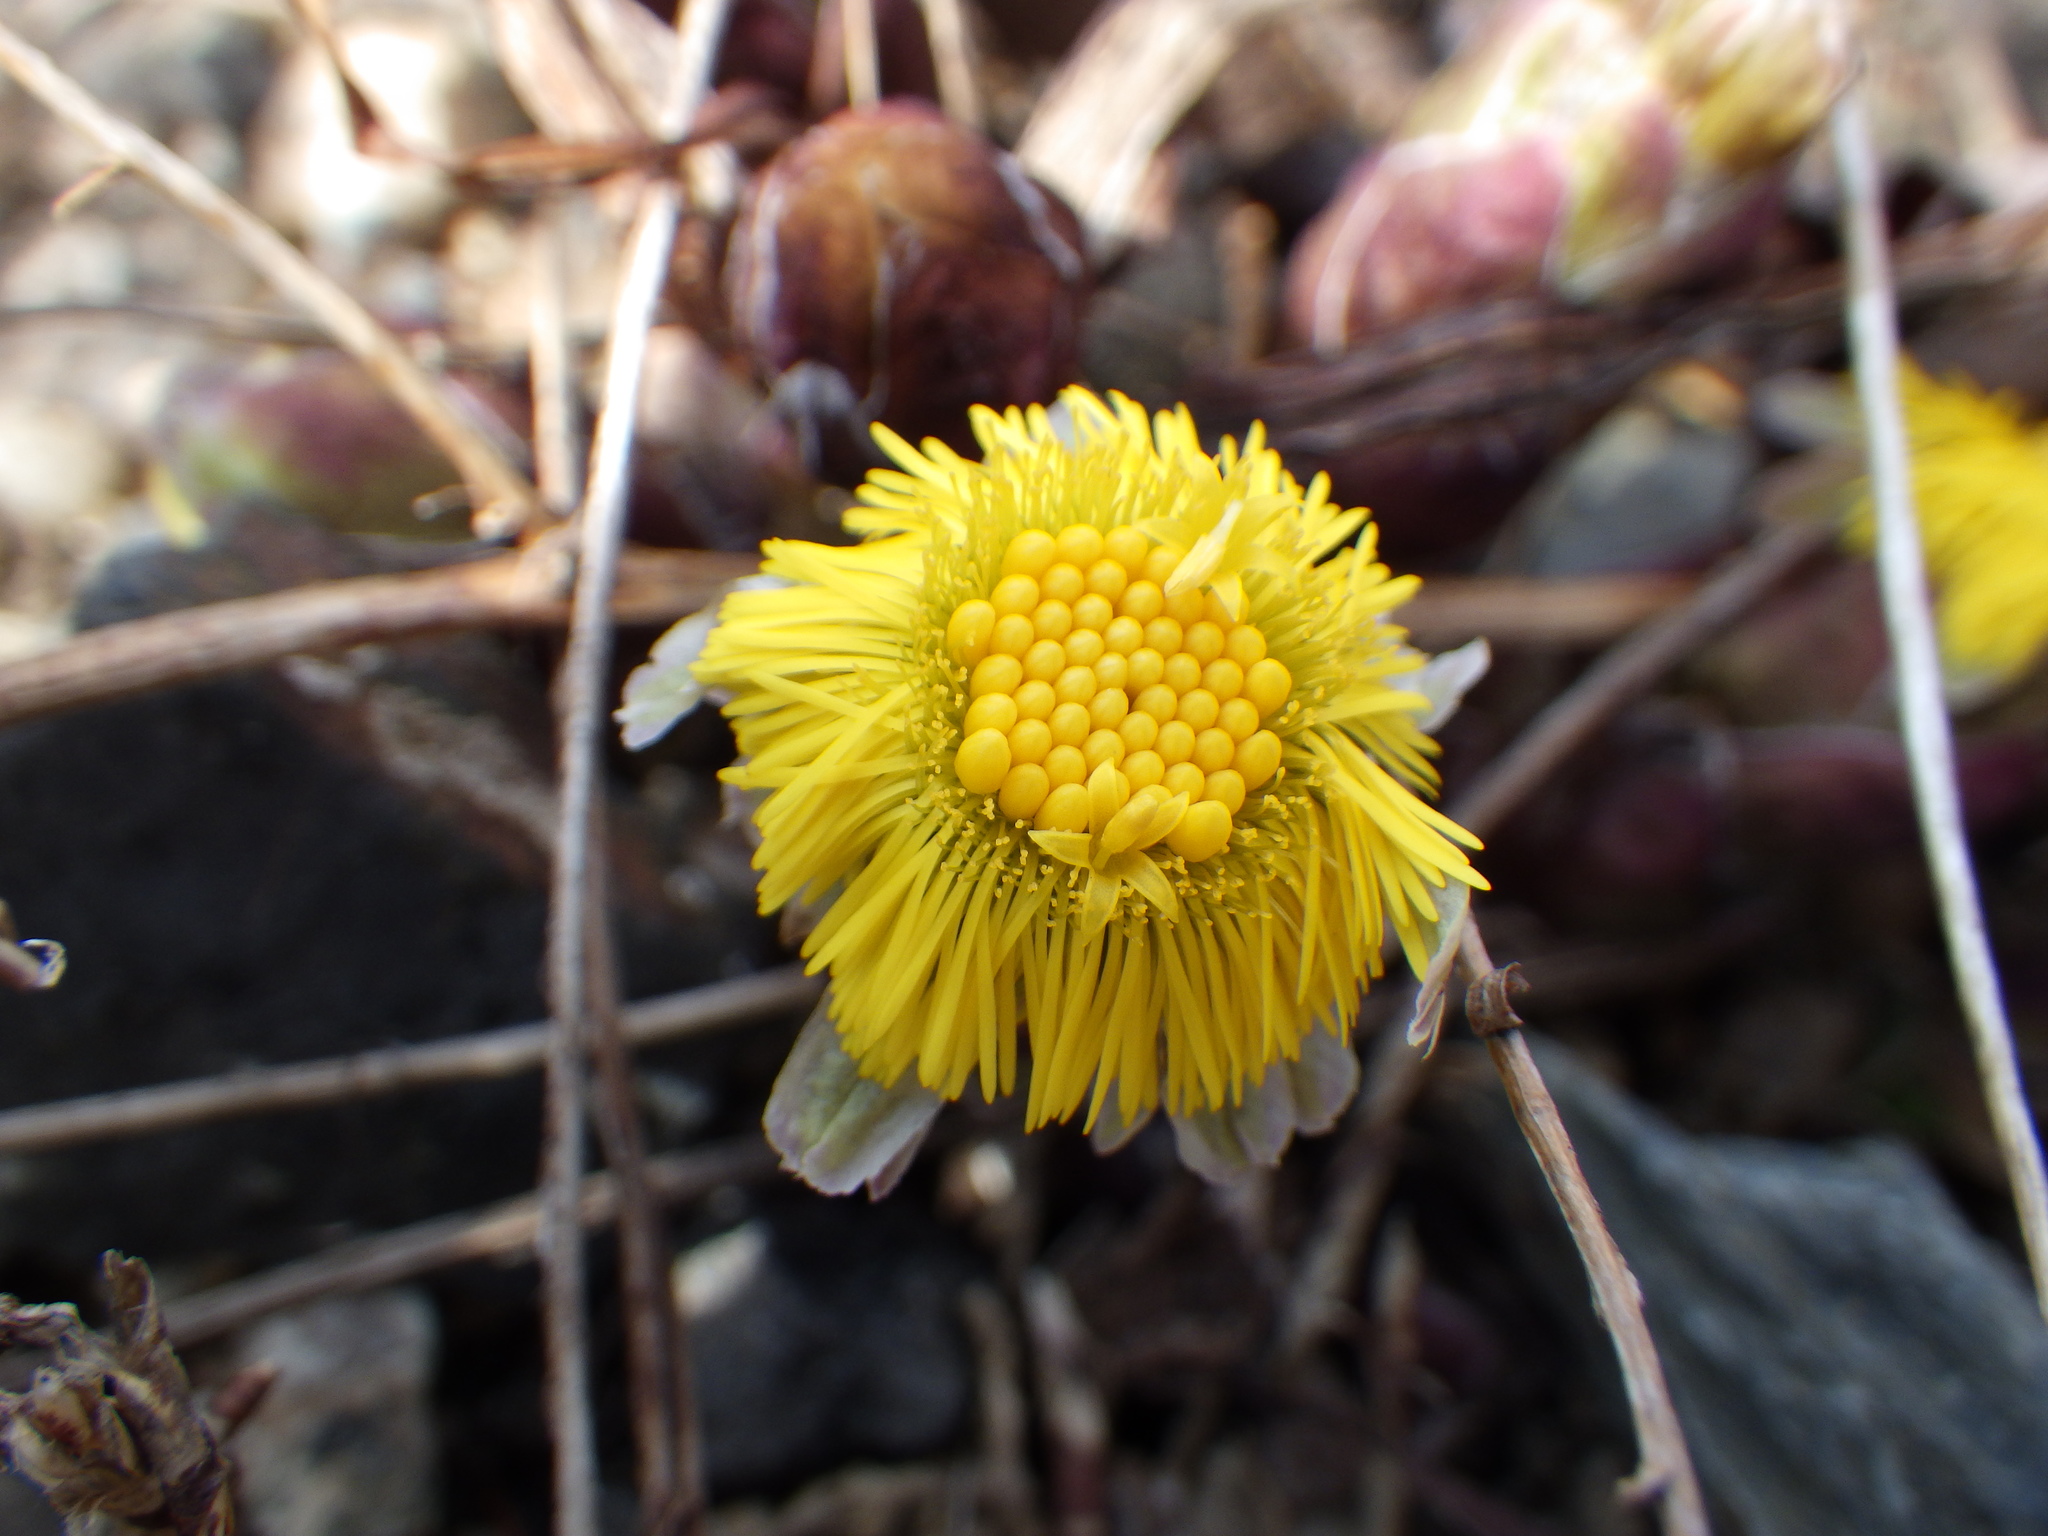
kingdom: Plantae
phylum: Tracheophyta
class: Magnoliopsida
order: Asterales
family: Asteraceae
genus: Tussilago
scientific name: Tussilago farfara
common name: Coltsfoot
